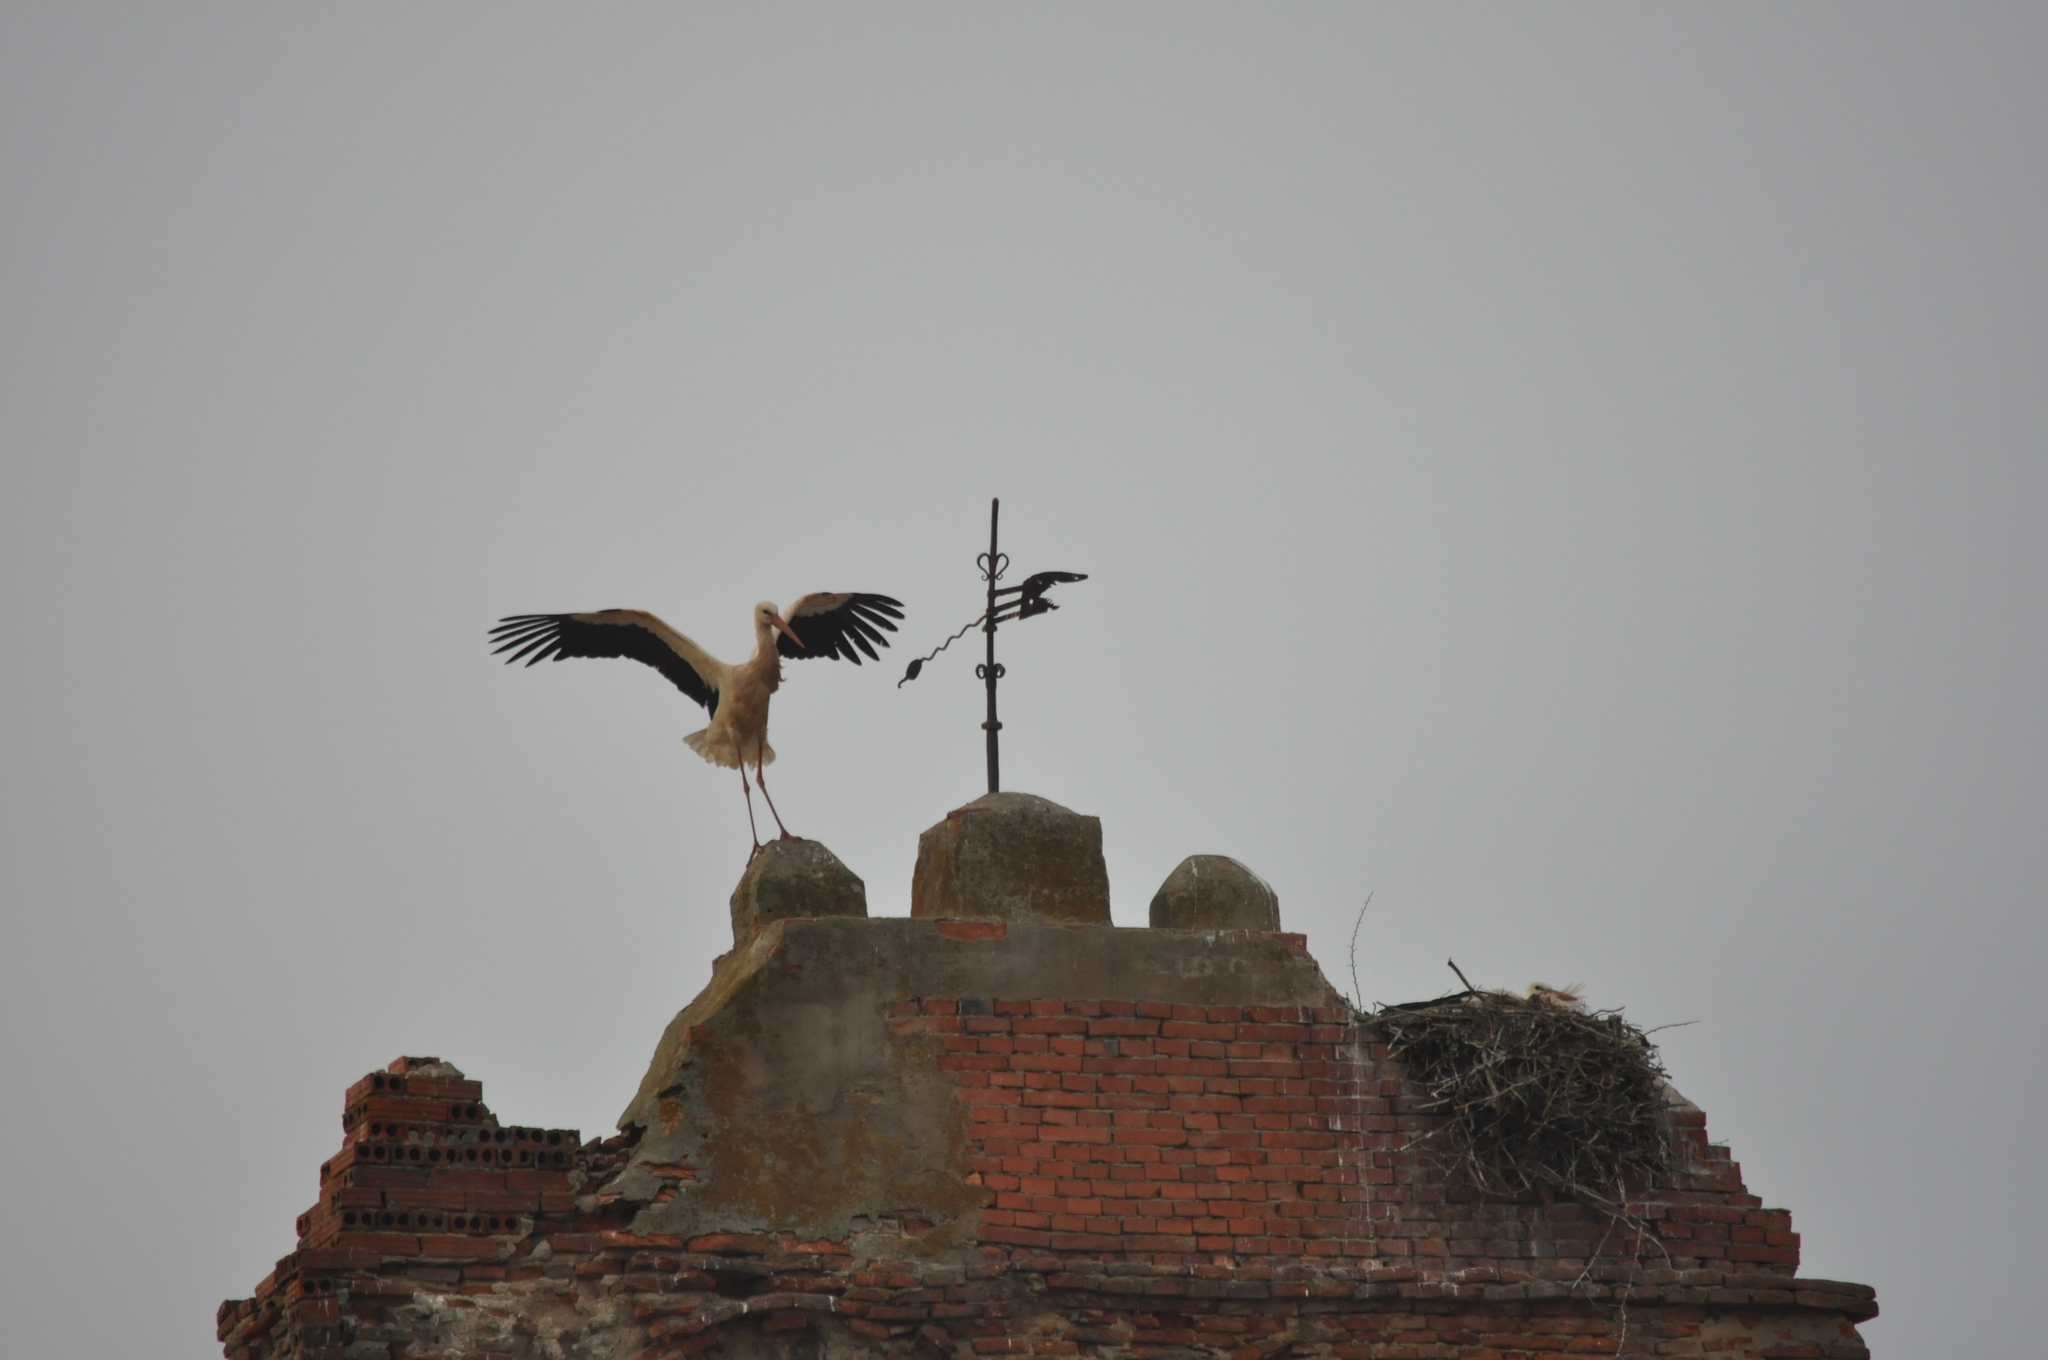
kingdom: Animalia
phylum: Chordata
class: Aves
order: Ciconiiformes
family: Ciconiidae
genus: Ciconia
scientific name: Ciconia ciconia
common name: White stork
